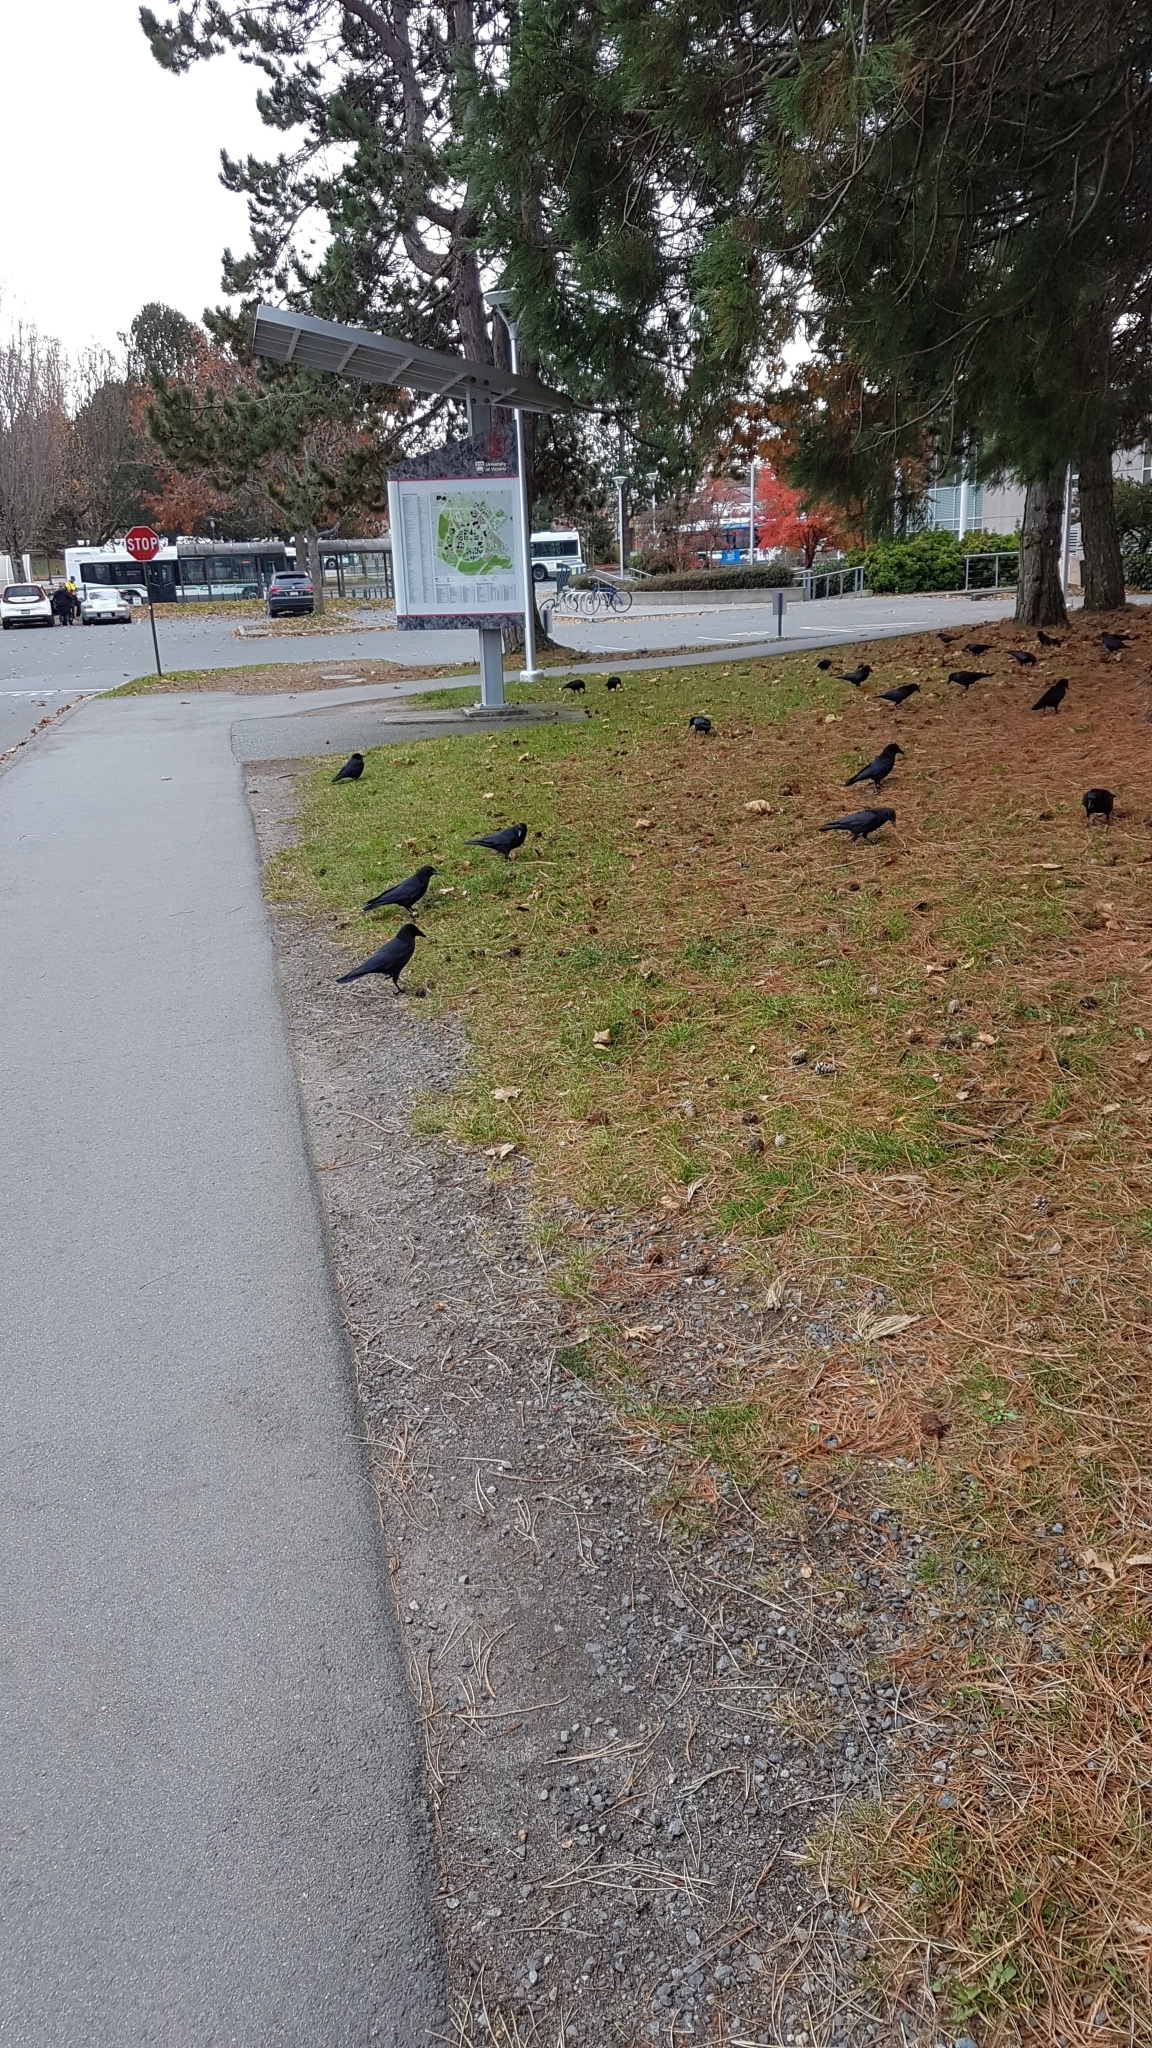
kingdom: Animalia
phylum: Chordata
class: Aves
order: Passeriformes
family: Corvidae
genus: Corvus
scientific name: Corvus brachyrhynchos
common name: American crow
